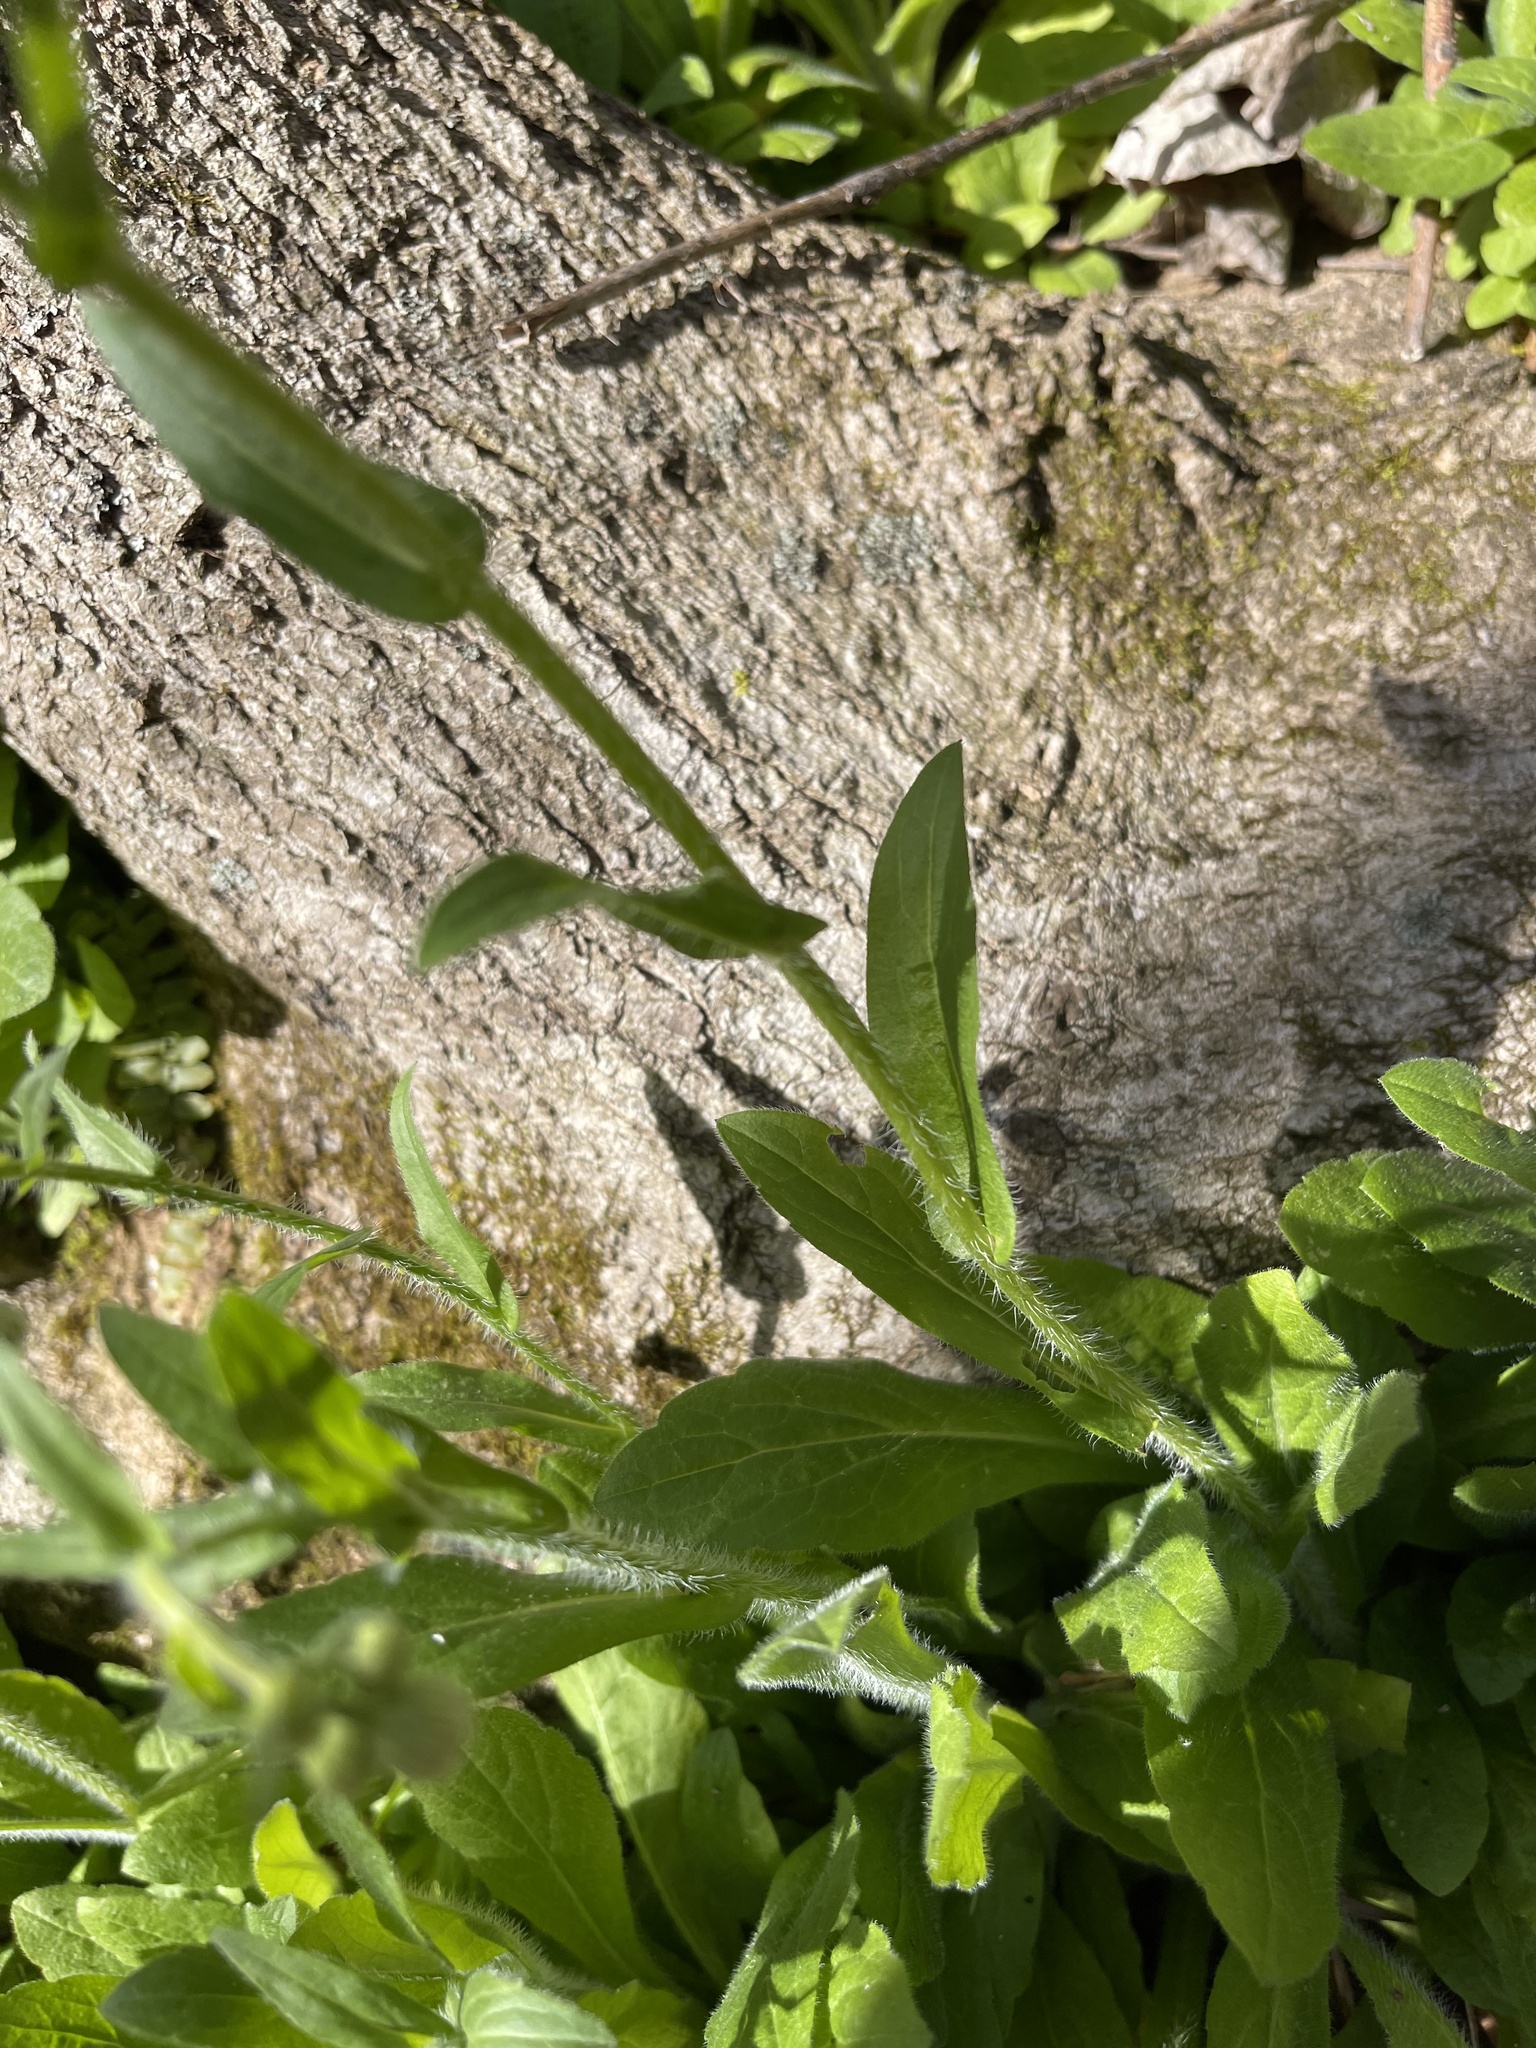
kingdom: Plantae
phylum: Tracheophyta
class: Magnoliopsida
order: Asterales
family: Asteraceae
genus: Erigeron
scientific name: Erigeron philadelphicus
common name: Robin's-plantain
